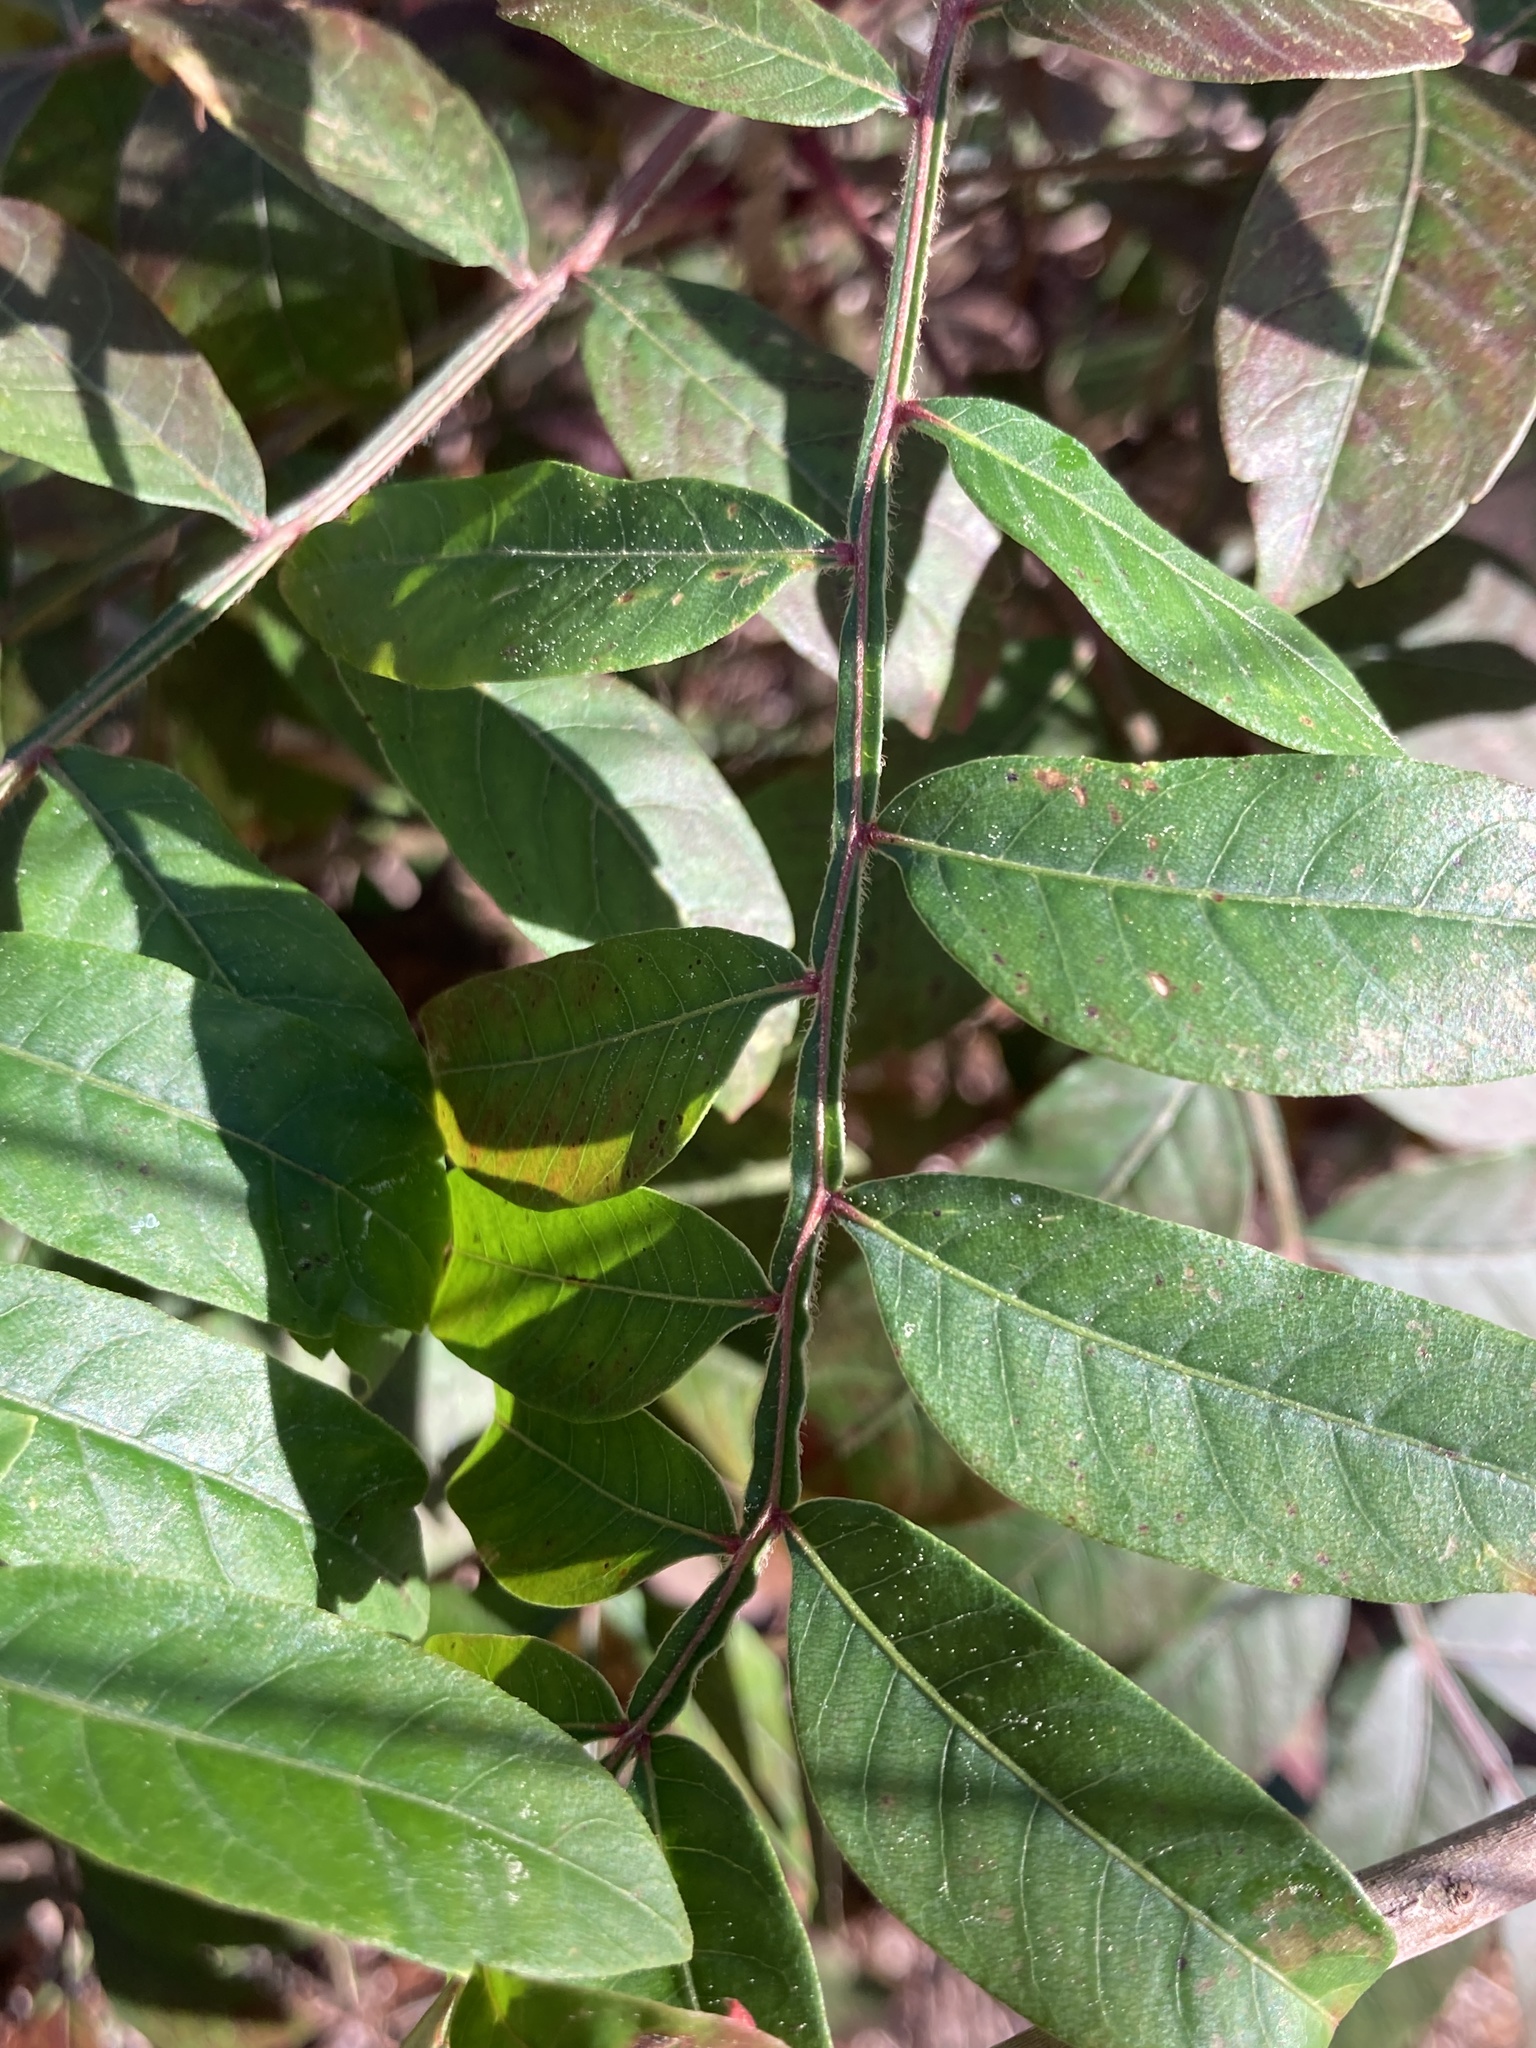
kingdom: Plantae
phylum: Tracheophyta
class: Magnoliopsida
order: Sapindales
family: Anacardiaceae
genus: Rhus
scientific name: Rhus copallina
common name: Shining sumac
